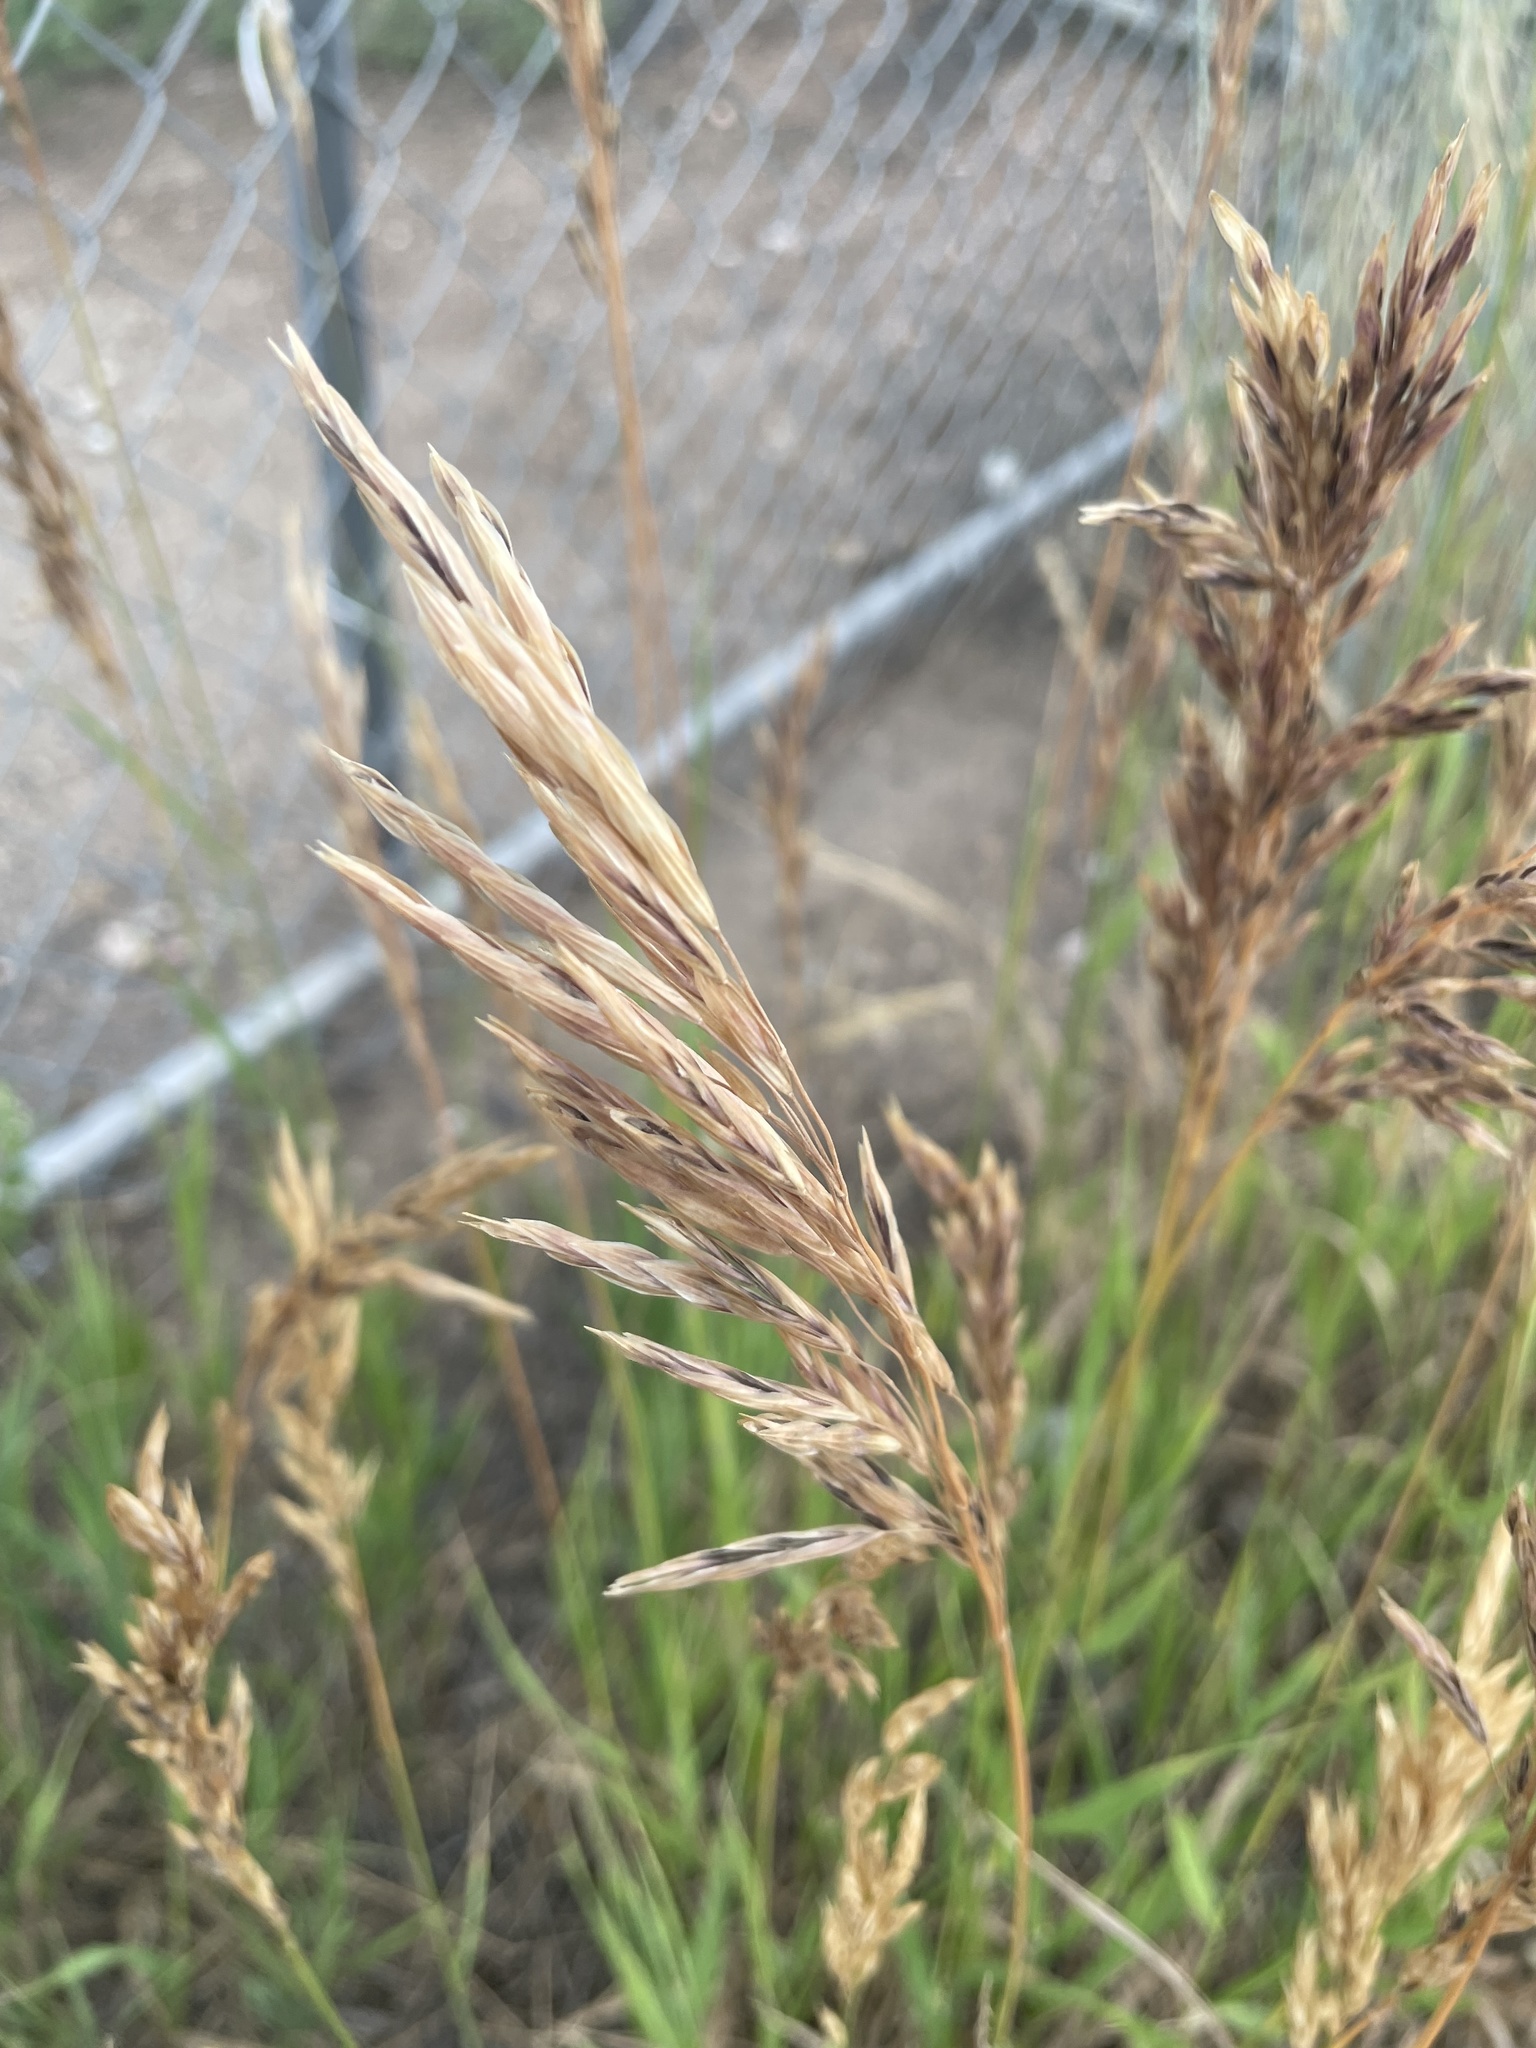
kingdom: Plantae
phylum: Tracheophyta
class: Liliopsida
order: Poales
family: Poaceae
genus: Bromus
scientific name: Bromus inermis
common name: Smooth brome
